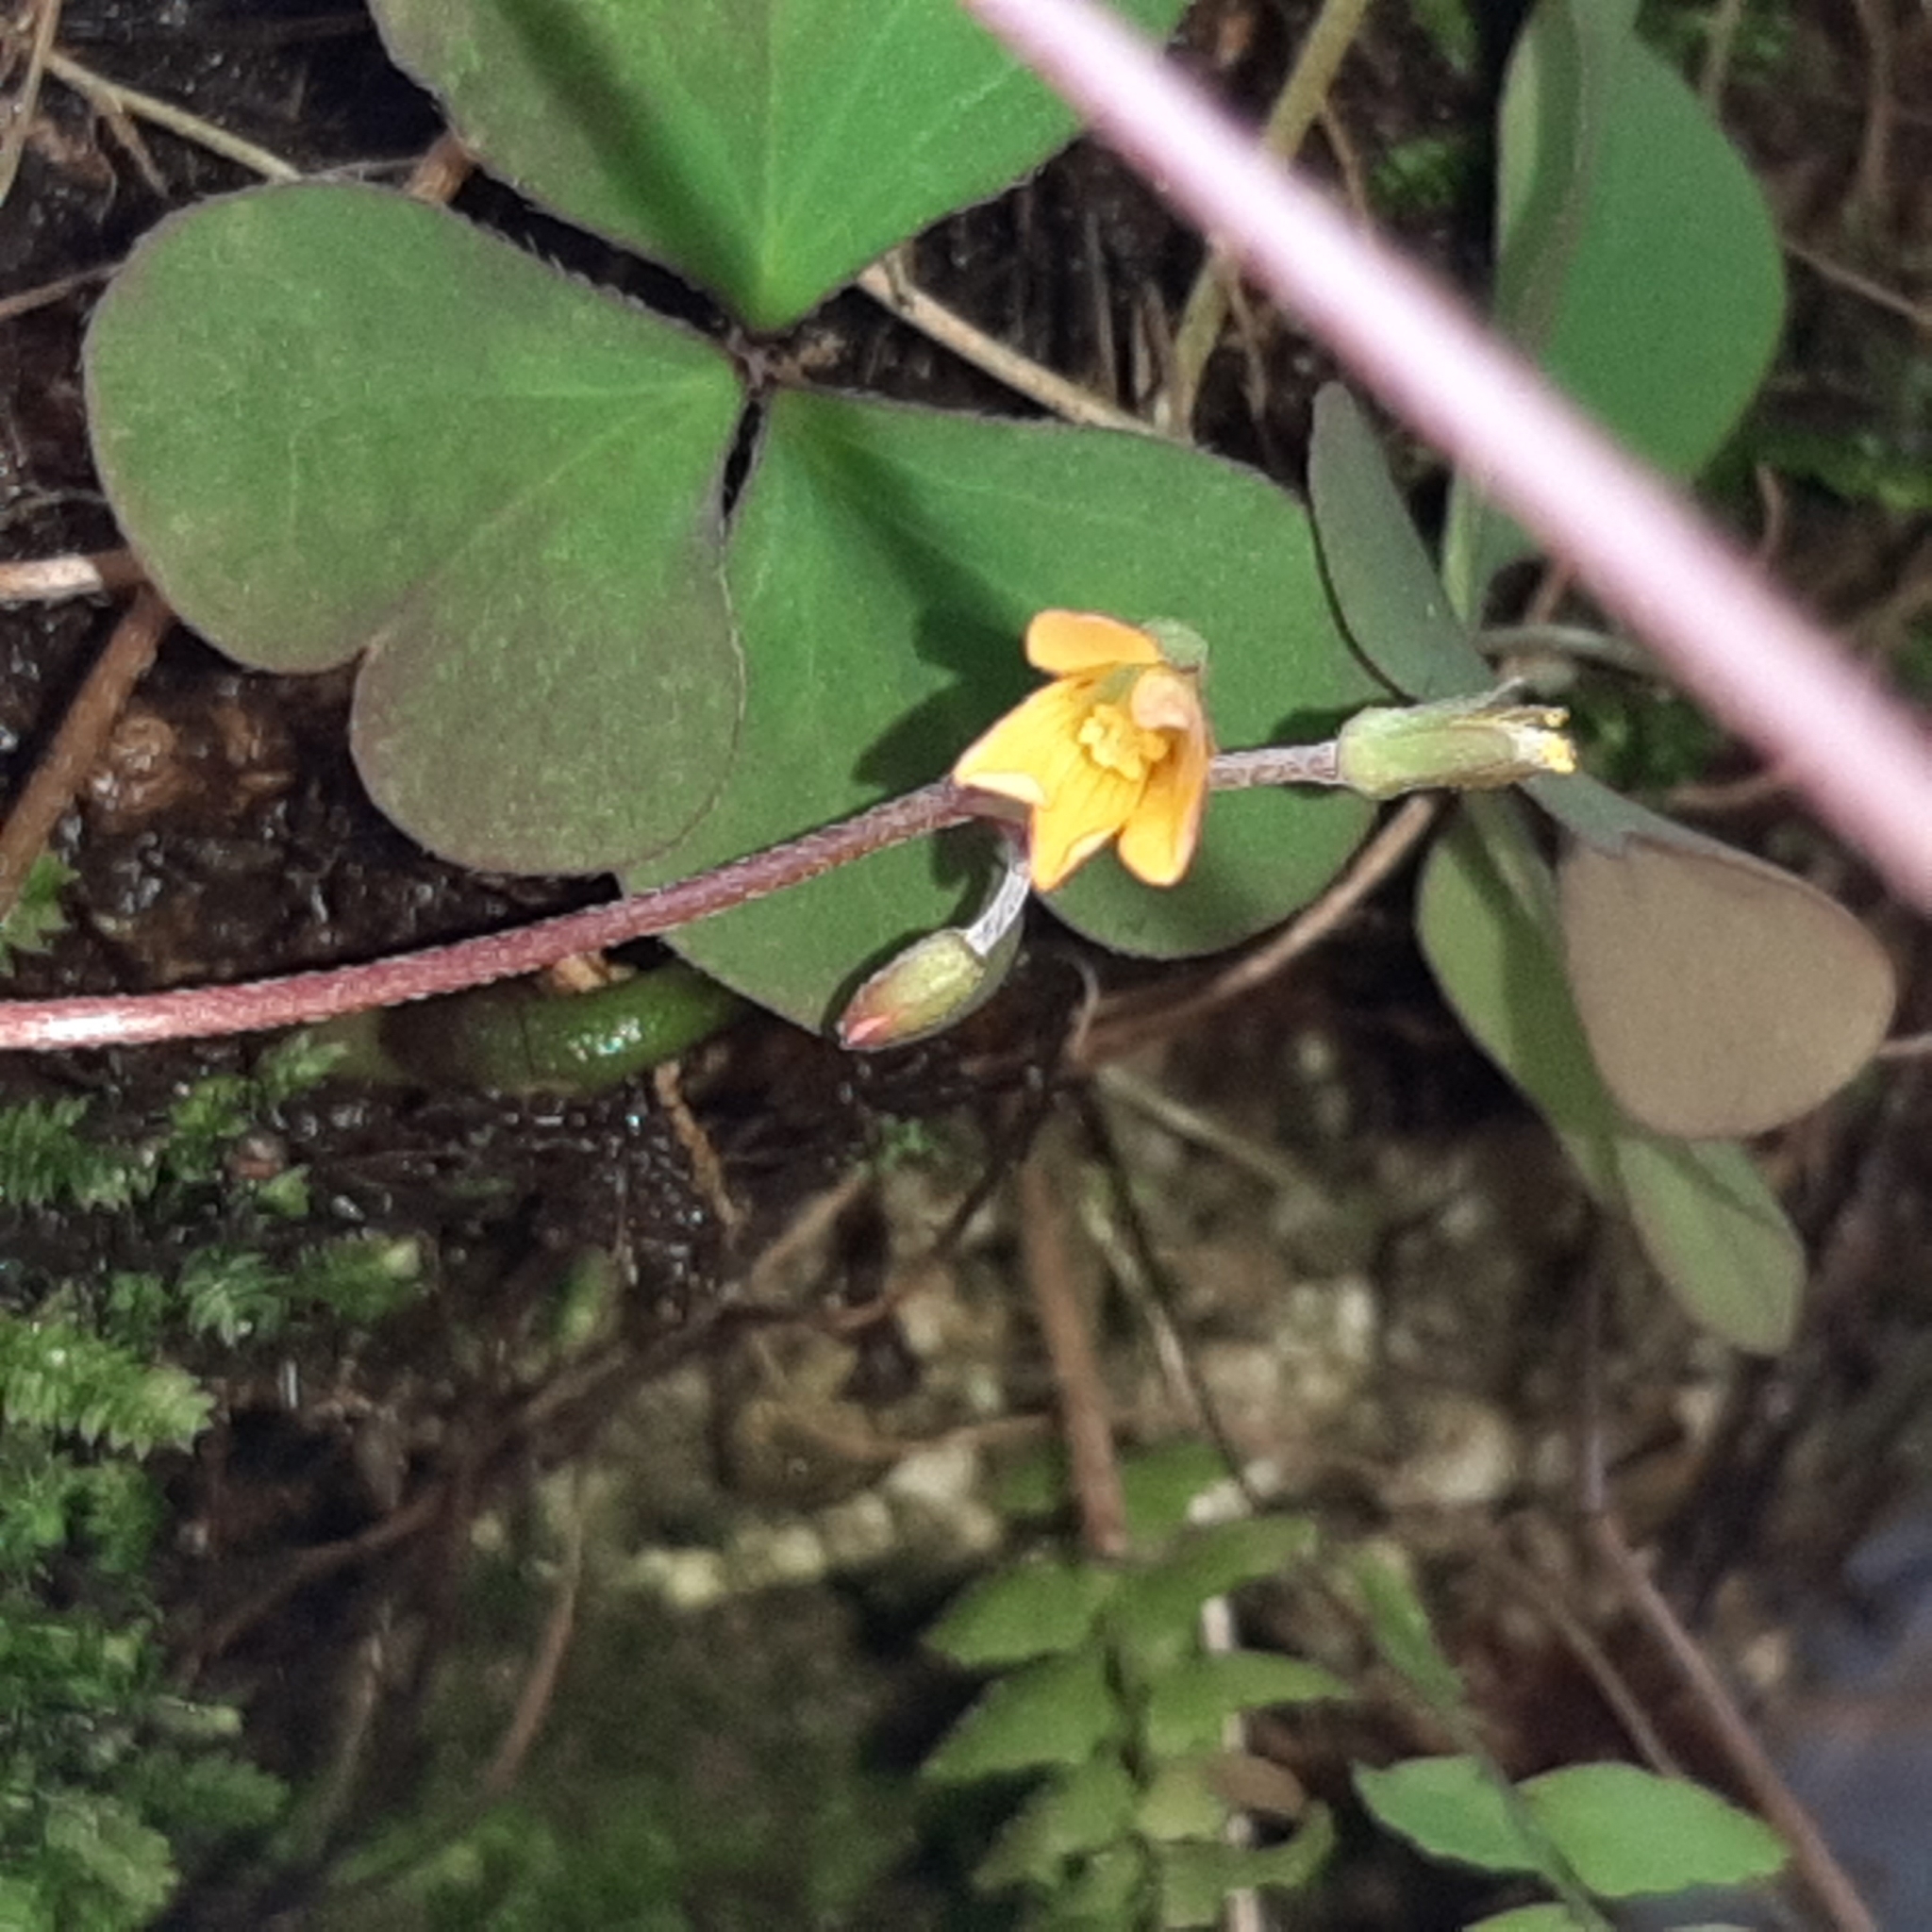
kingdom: Plantae
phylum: Tracheophyta
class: Magnoliopsida
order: Oxalidales
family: Oxalidaceae
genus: Oxalis
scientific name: Oxalis corniculata
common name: Procumbent yellow-sorrel
